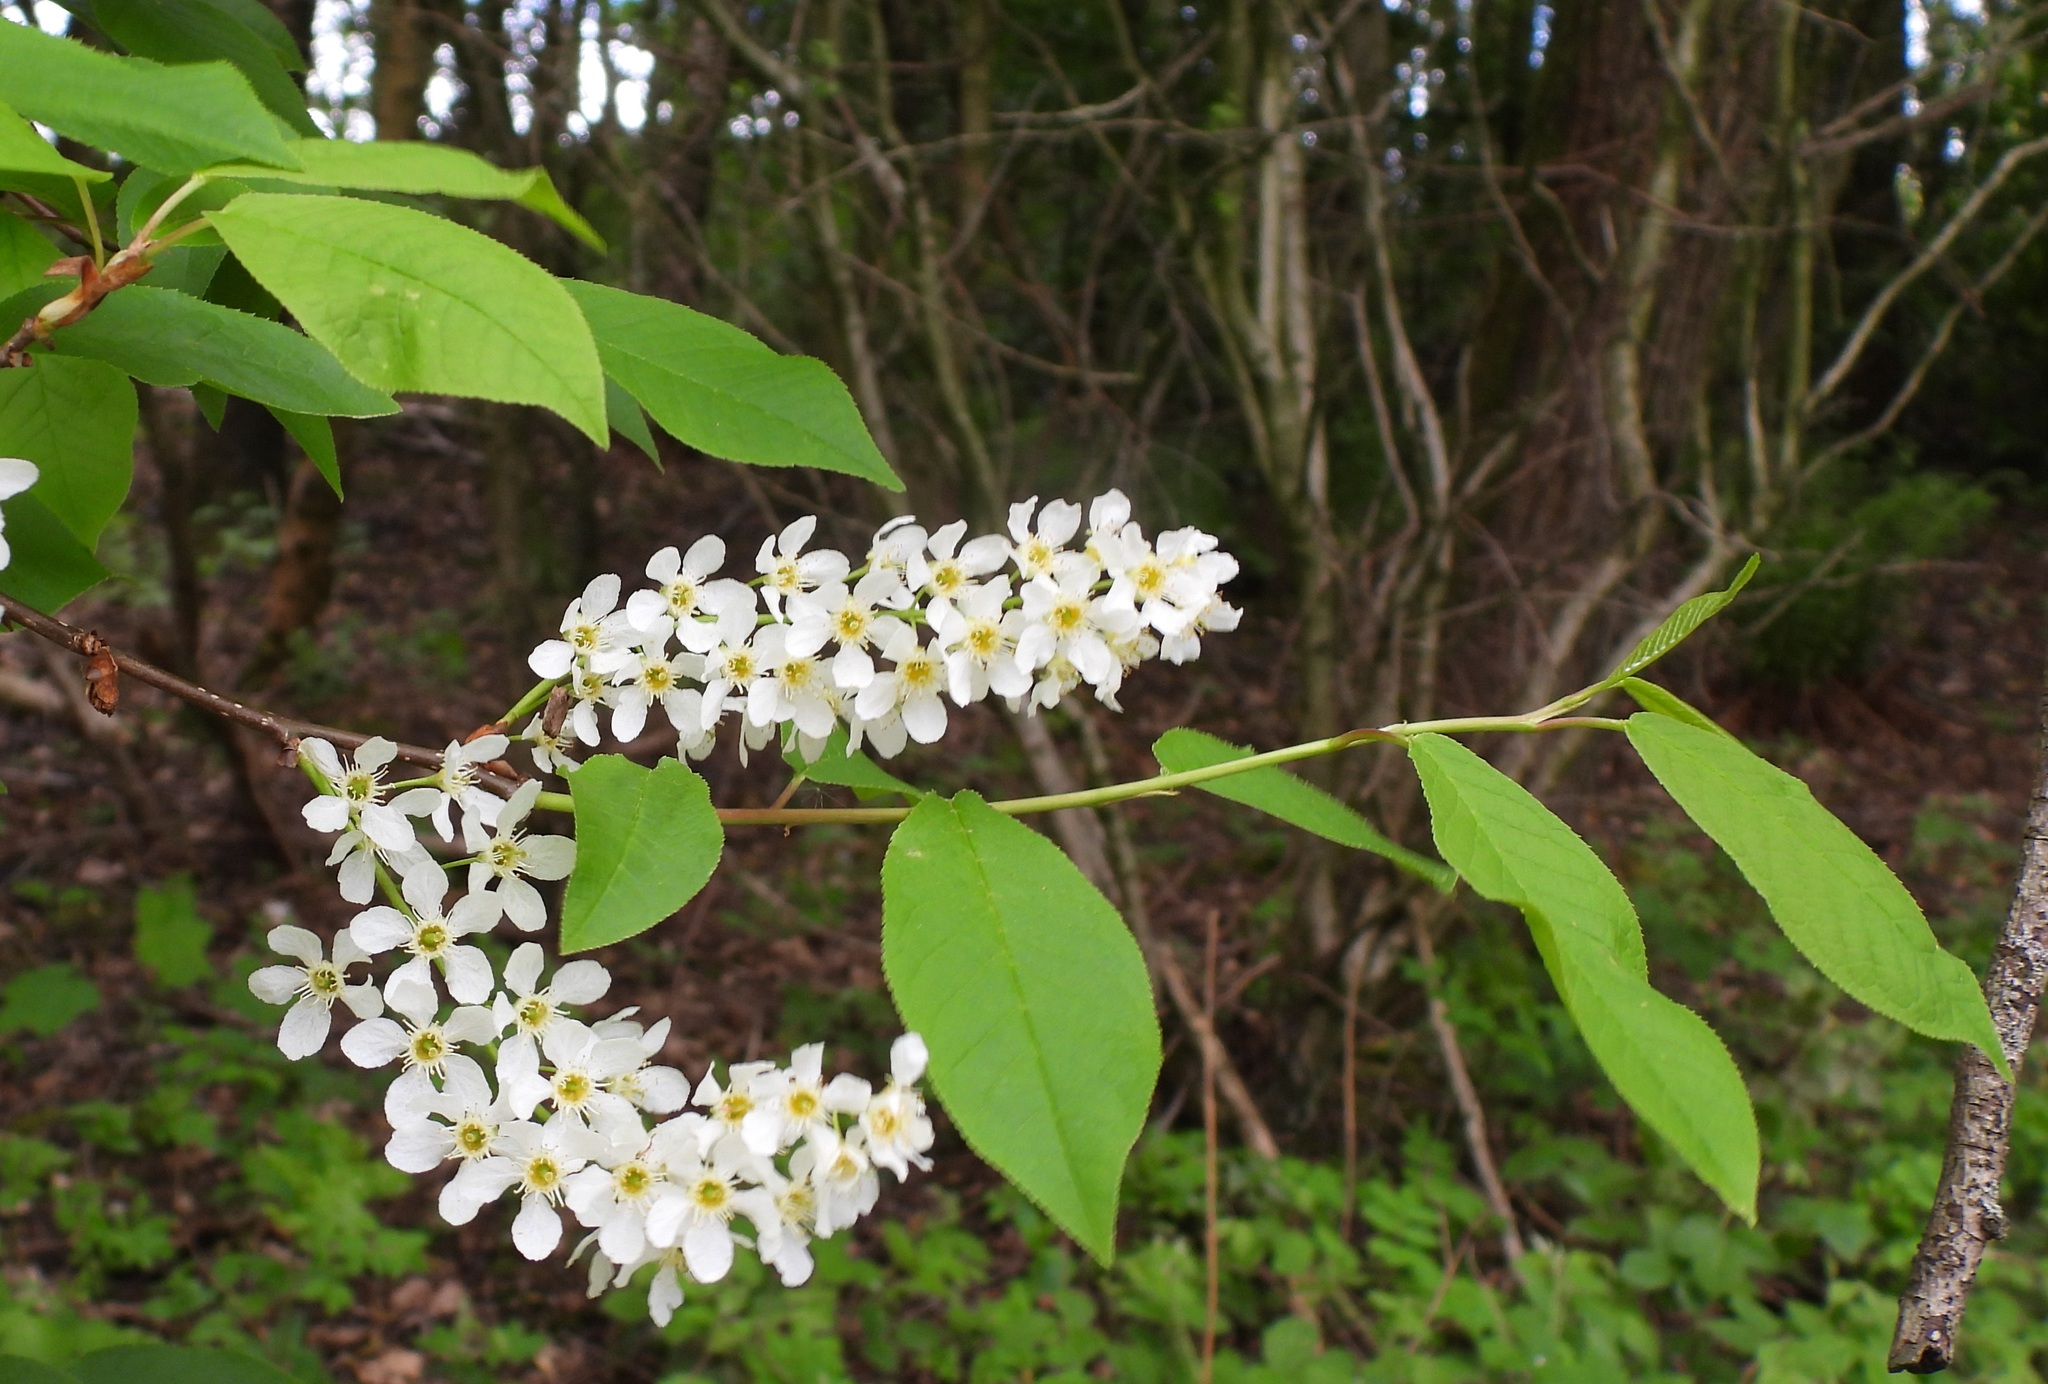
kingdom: Plantae
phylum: Tracheophyta
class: Magnoliopsida
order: Rosales
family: Rosaceae
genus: Prunus
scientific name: Prunus padus
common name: Bird cherry
